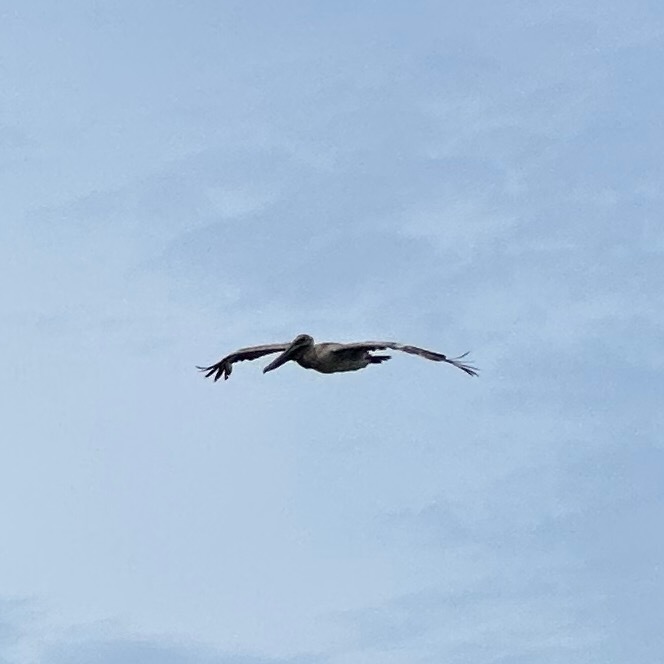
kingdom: Animalia
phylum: Chordata
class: Aves
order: Pelecaniformes
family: Pelecanidae
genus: Pelecanus
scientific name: Pelecanus occidentalis
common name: Brown pelican
